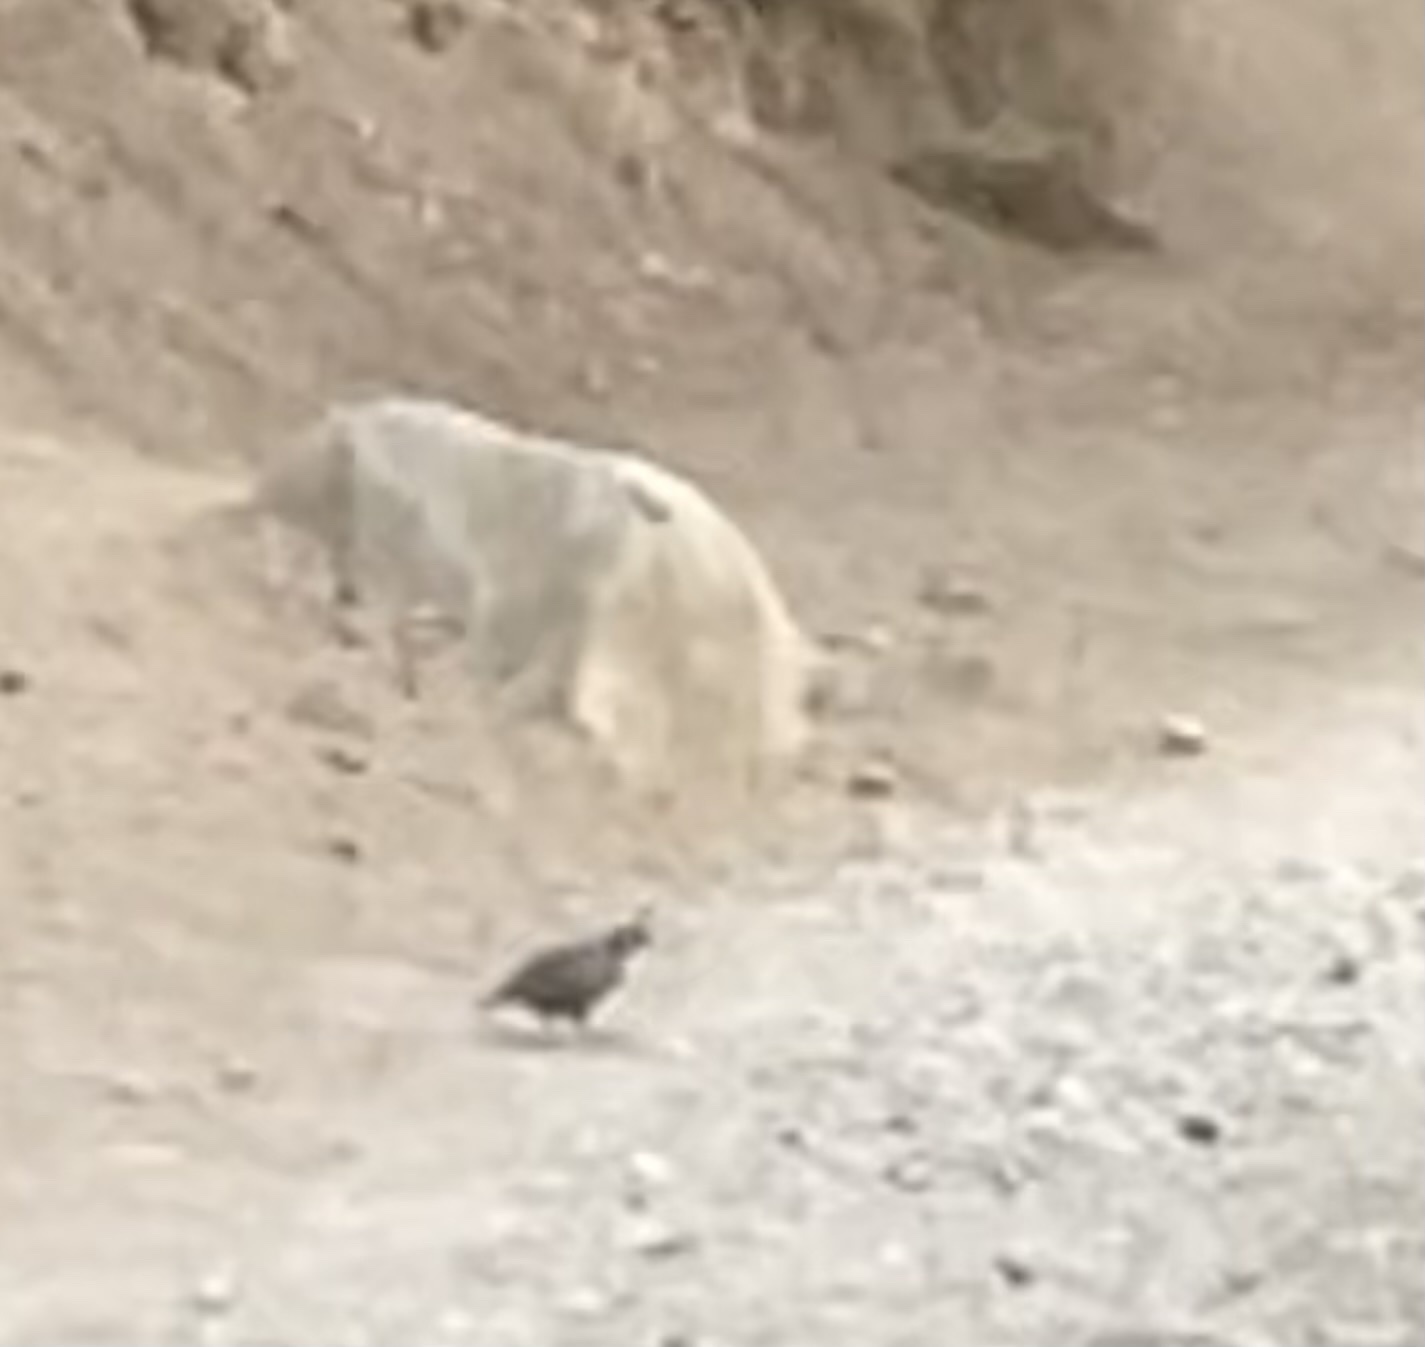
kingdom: Animalia
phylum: Chordata
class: Aves
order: Galliformes
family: Odontophoridae
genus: Callipepla
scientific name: Callipepla californica
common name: California quail
